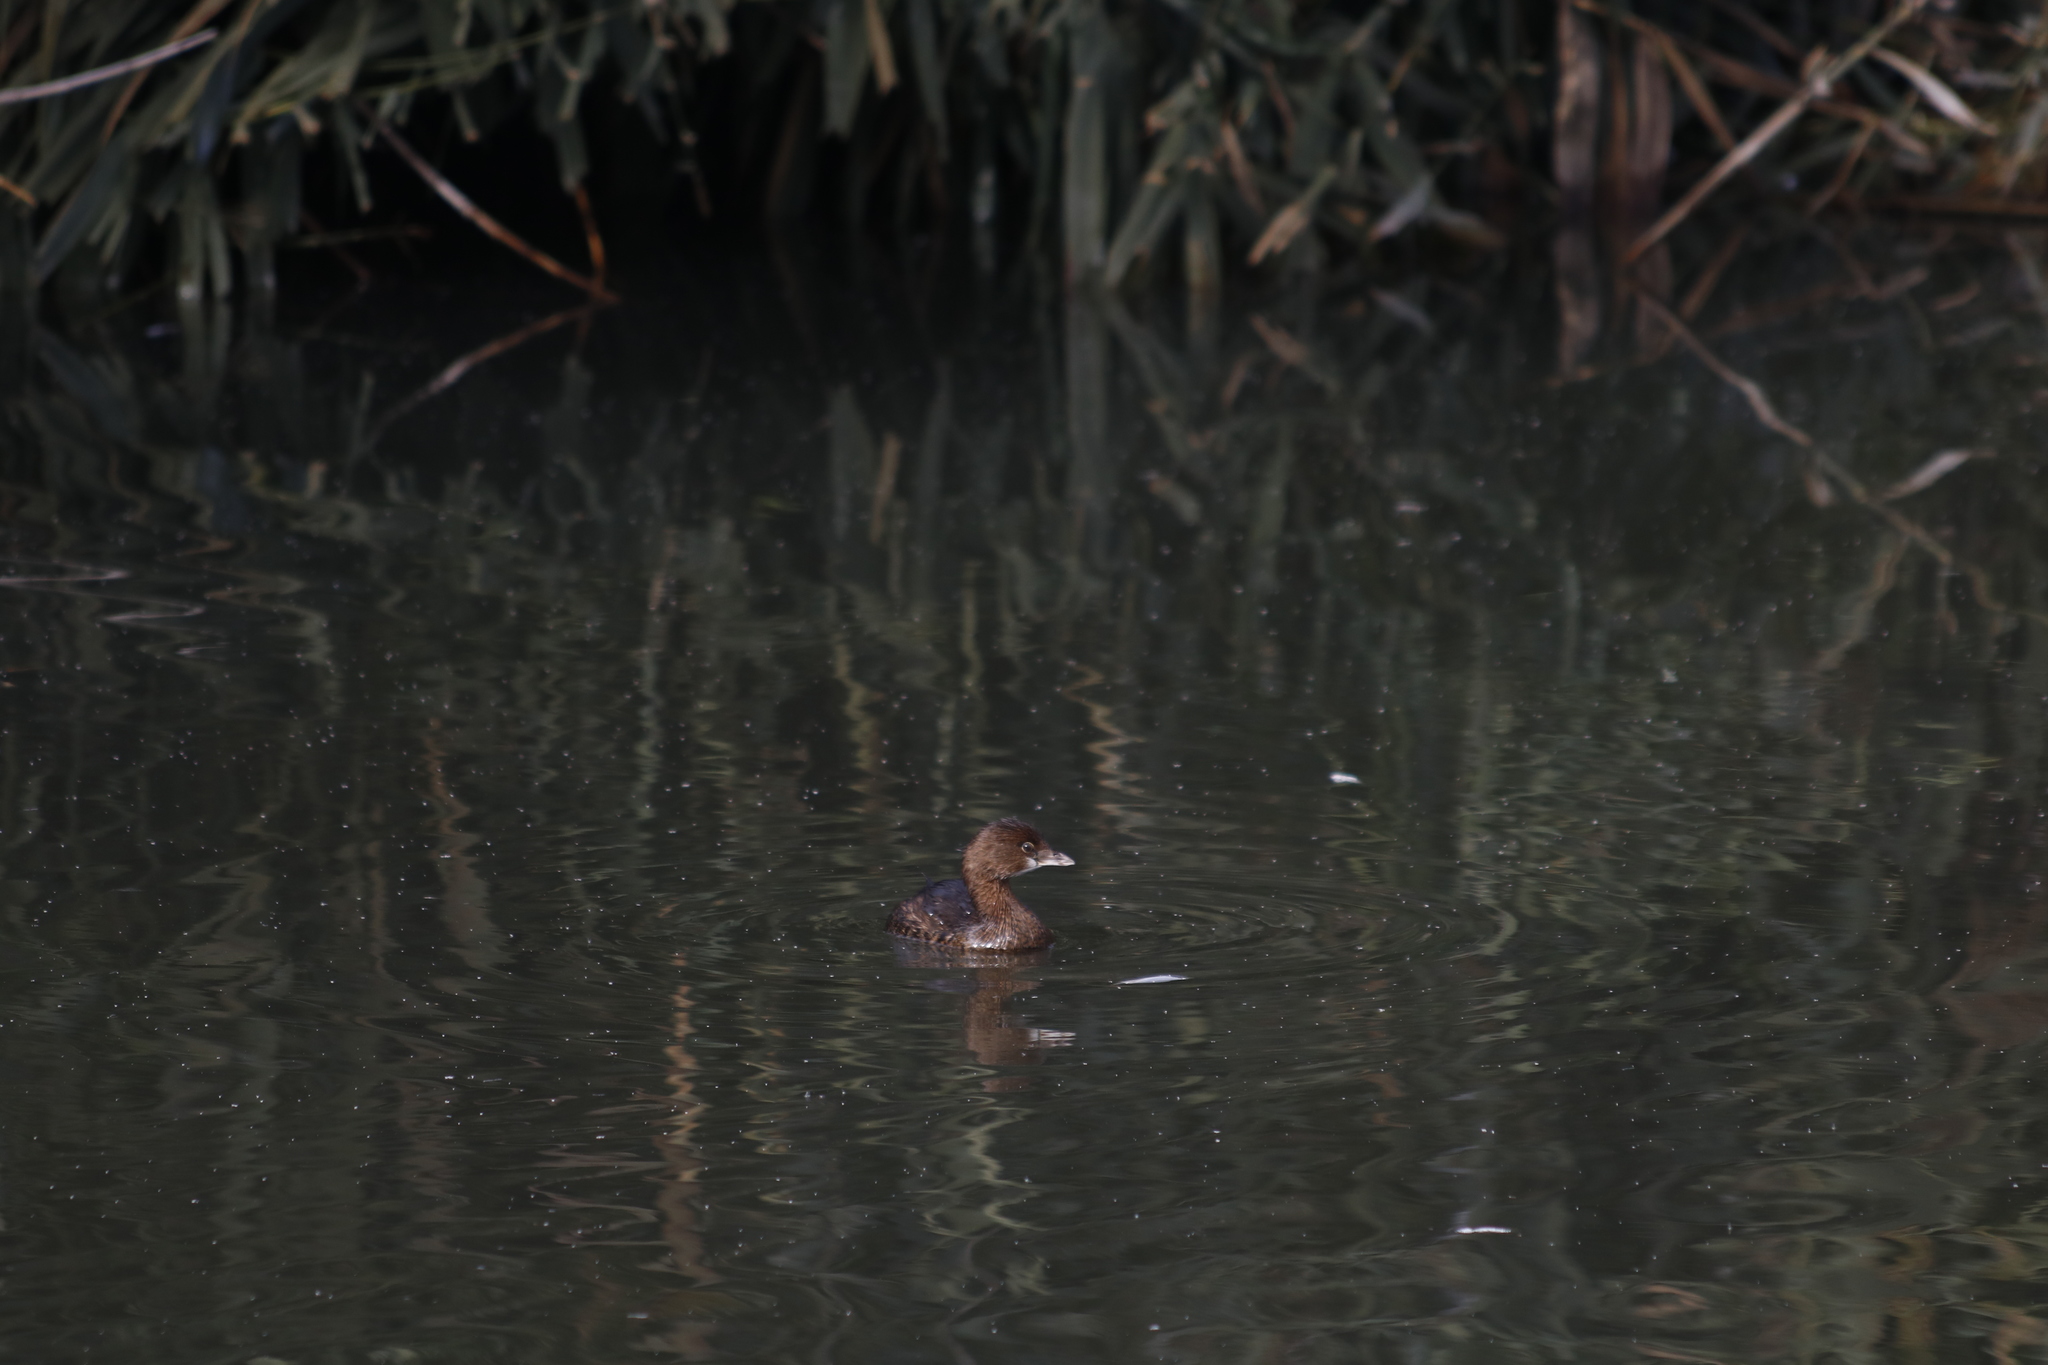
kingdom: Animalia
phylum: Chordata
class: Aves
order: Podicipediformes
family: Podicipedidae
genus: Podilymbus
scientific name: Podilymbus podiceps
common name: Pied-billed grebe
